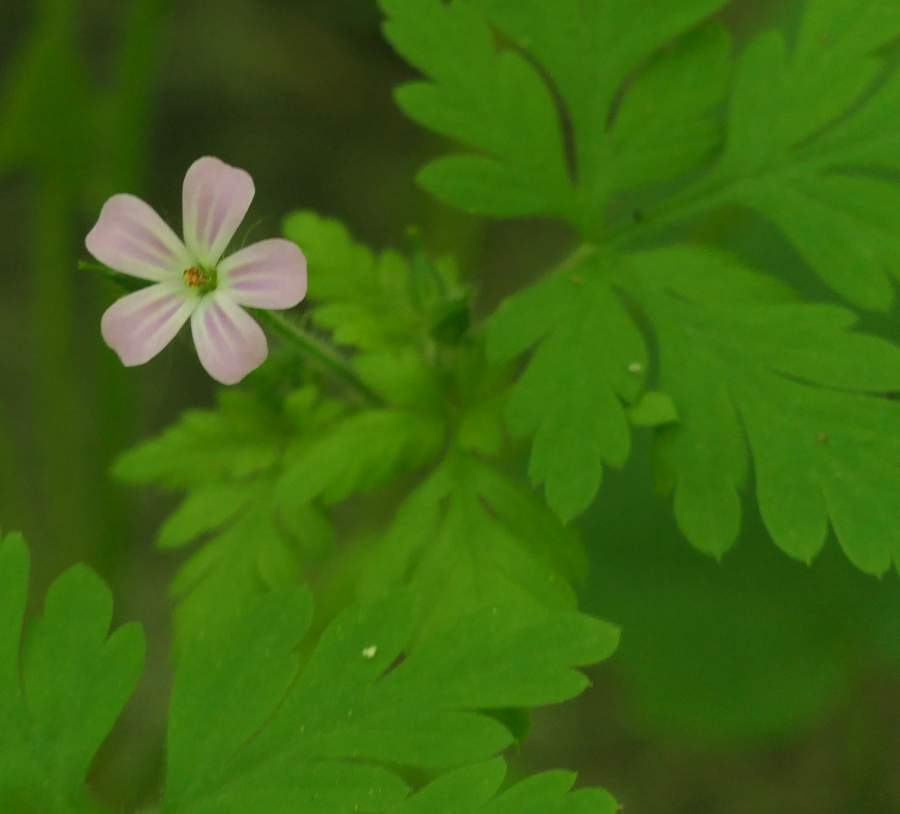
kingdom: Plantae
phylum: Tracheophyta
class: Magnoliopsida
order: Geraniales
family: Geraniaceae
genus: Geranium
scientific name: Geranium robertianum
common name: Herb-robert
